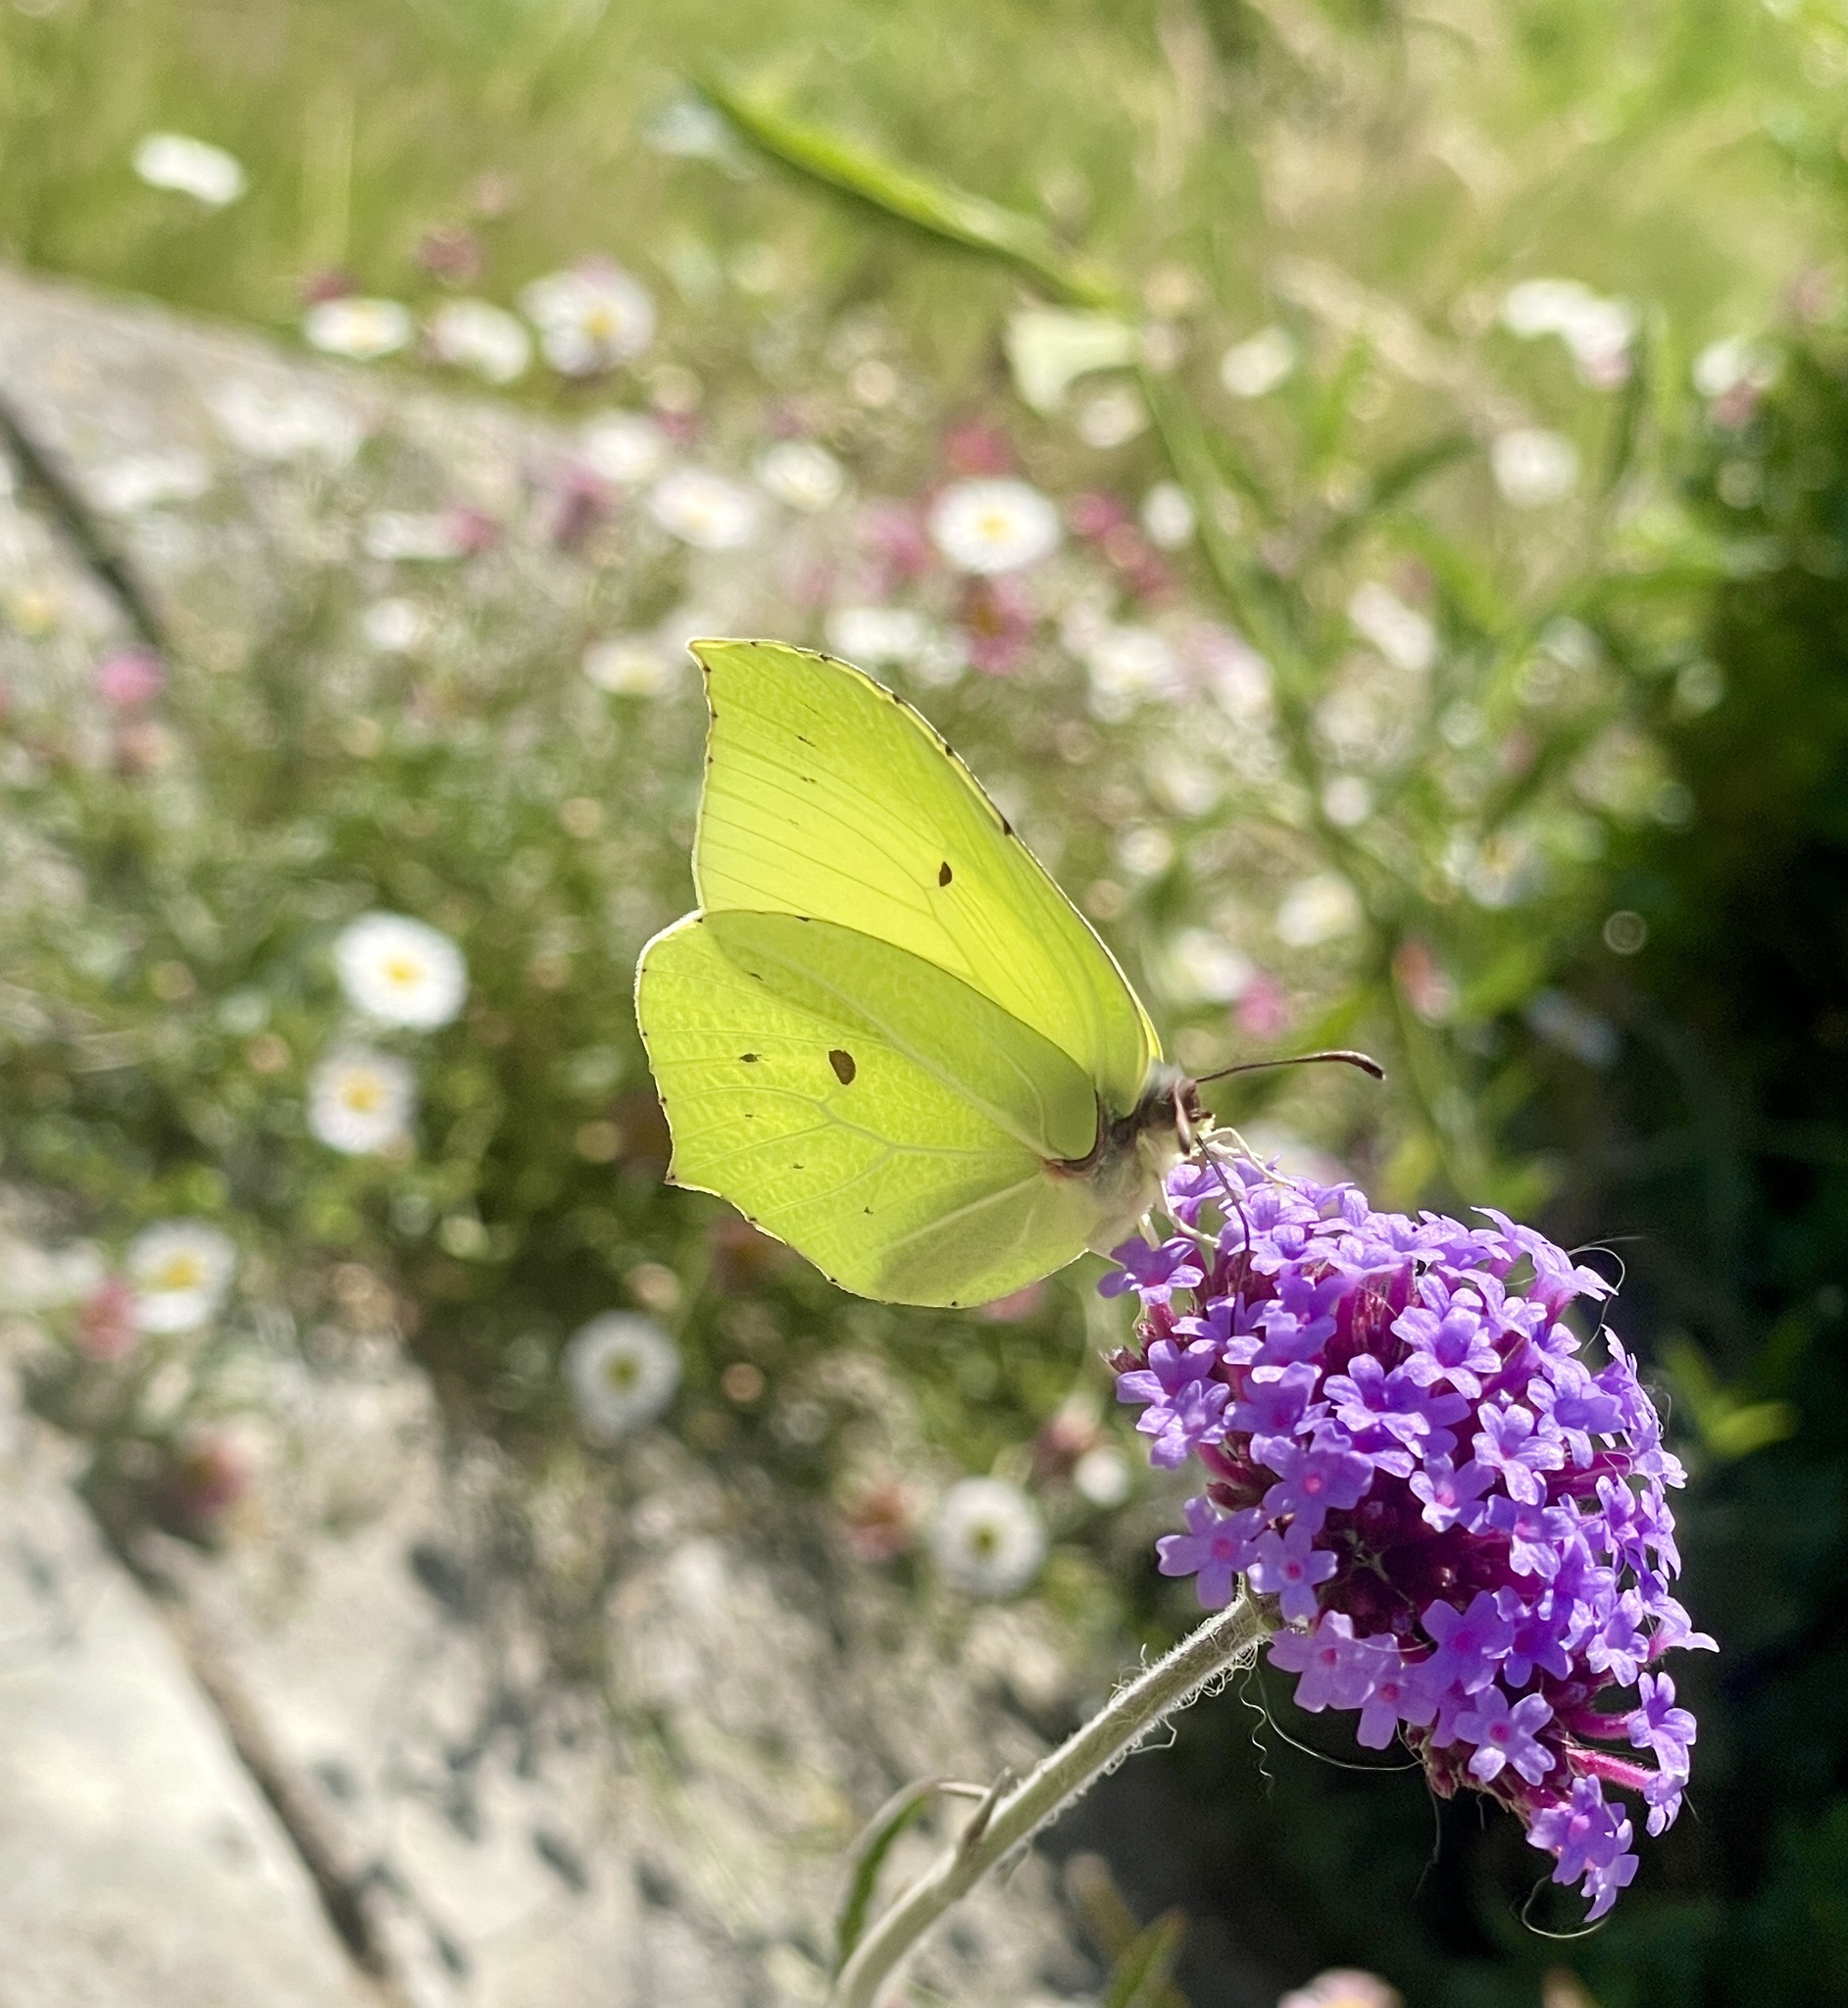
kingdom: Animalia
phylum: Arthropoda
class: Insecta
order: Lepidoptera
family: Pieridae
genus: Gonepteryx
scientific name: Gonepteryx rhamni
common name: Brimstone
